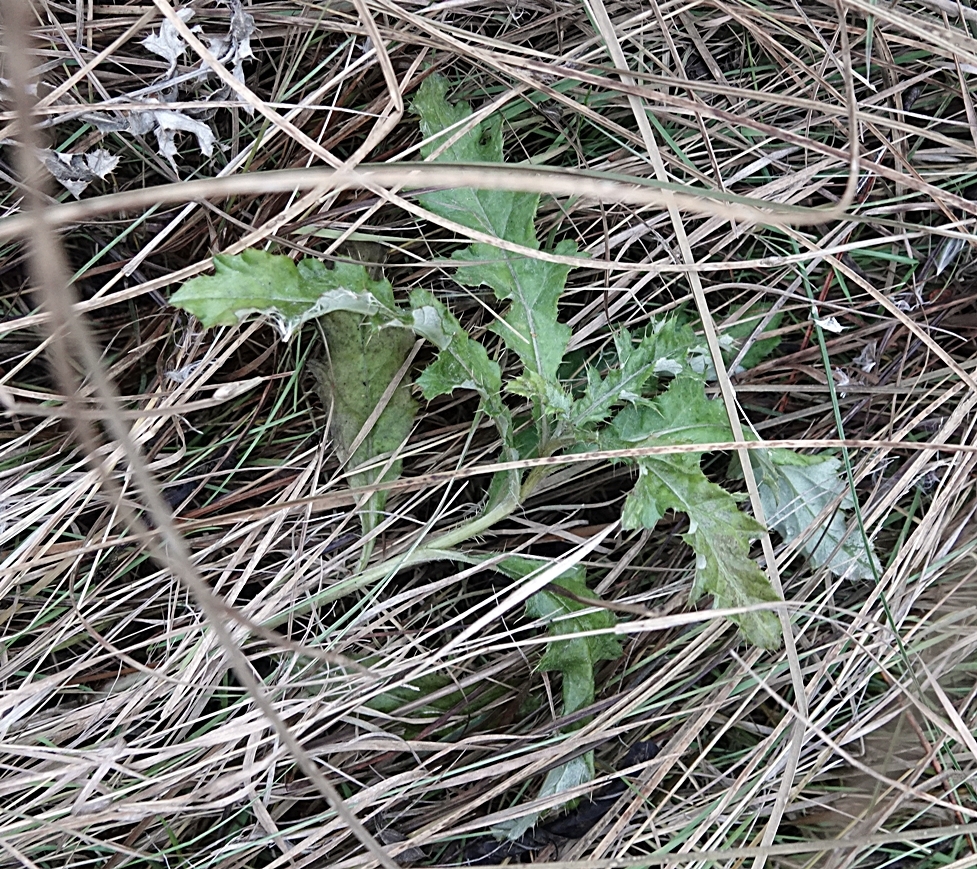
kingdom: Plantae
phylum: Tracheophyta
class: Magnoliopsida
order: Asterales
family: Asteraceae
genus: Cirsium
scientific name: Cirsium arvense
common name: Creeping thistle
